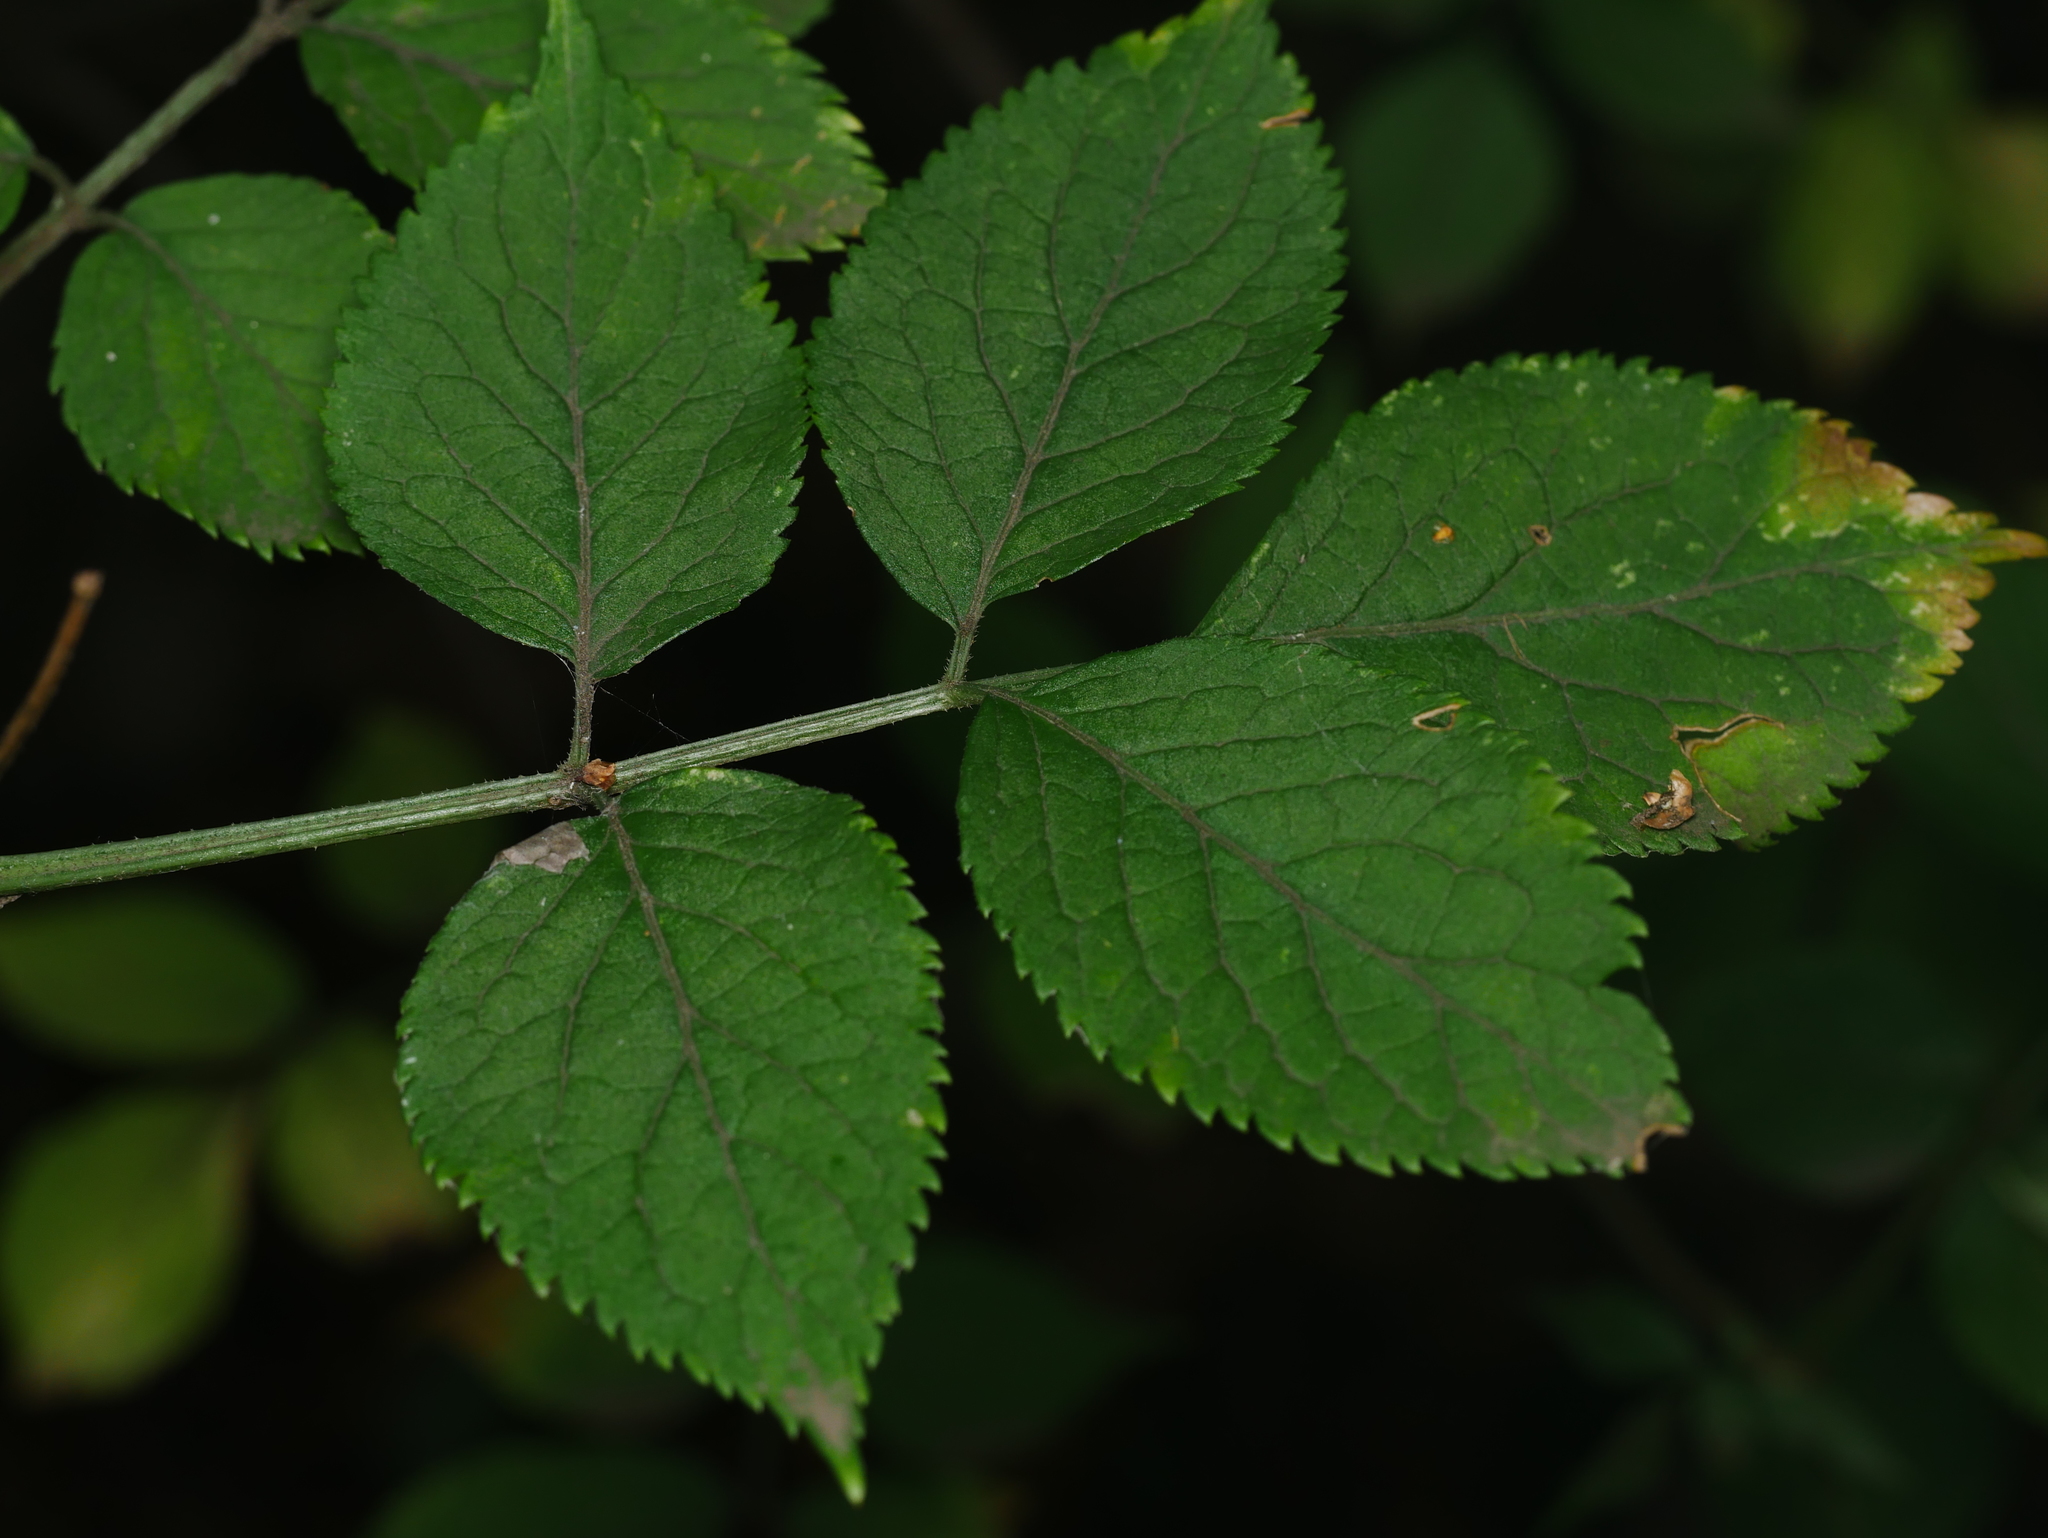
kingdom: Plantae
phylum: Tracheophyta
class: Magnoliopsida
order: Dipsacales
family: Viburnaceae
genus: Sambucus
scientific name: Sambucus nigra
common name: Elder
